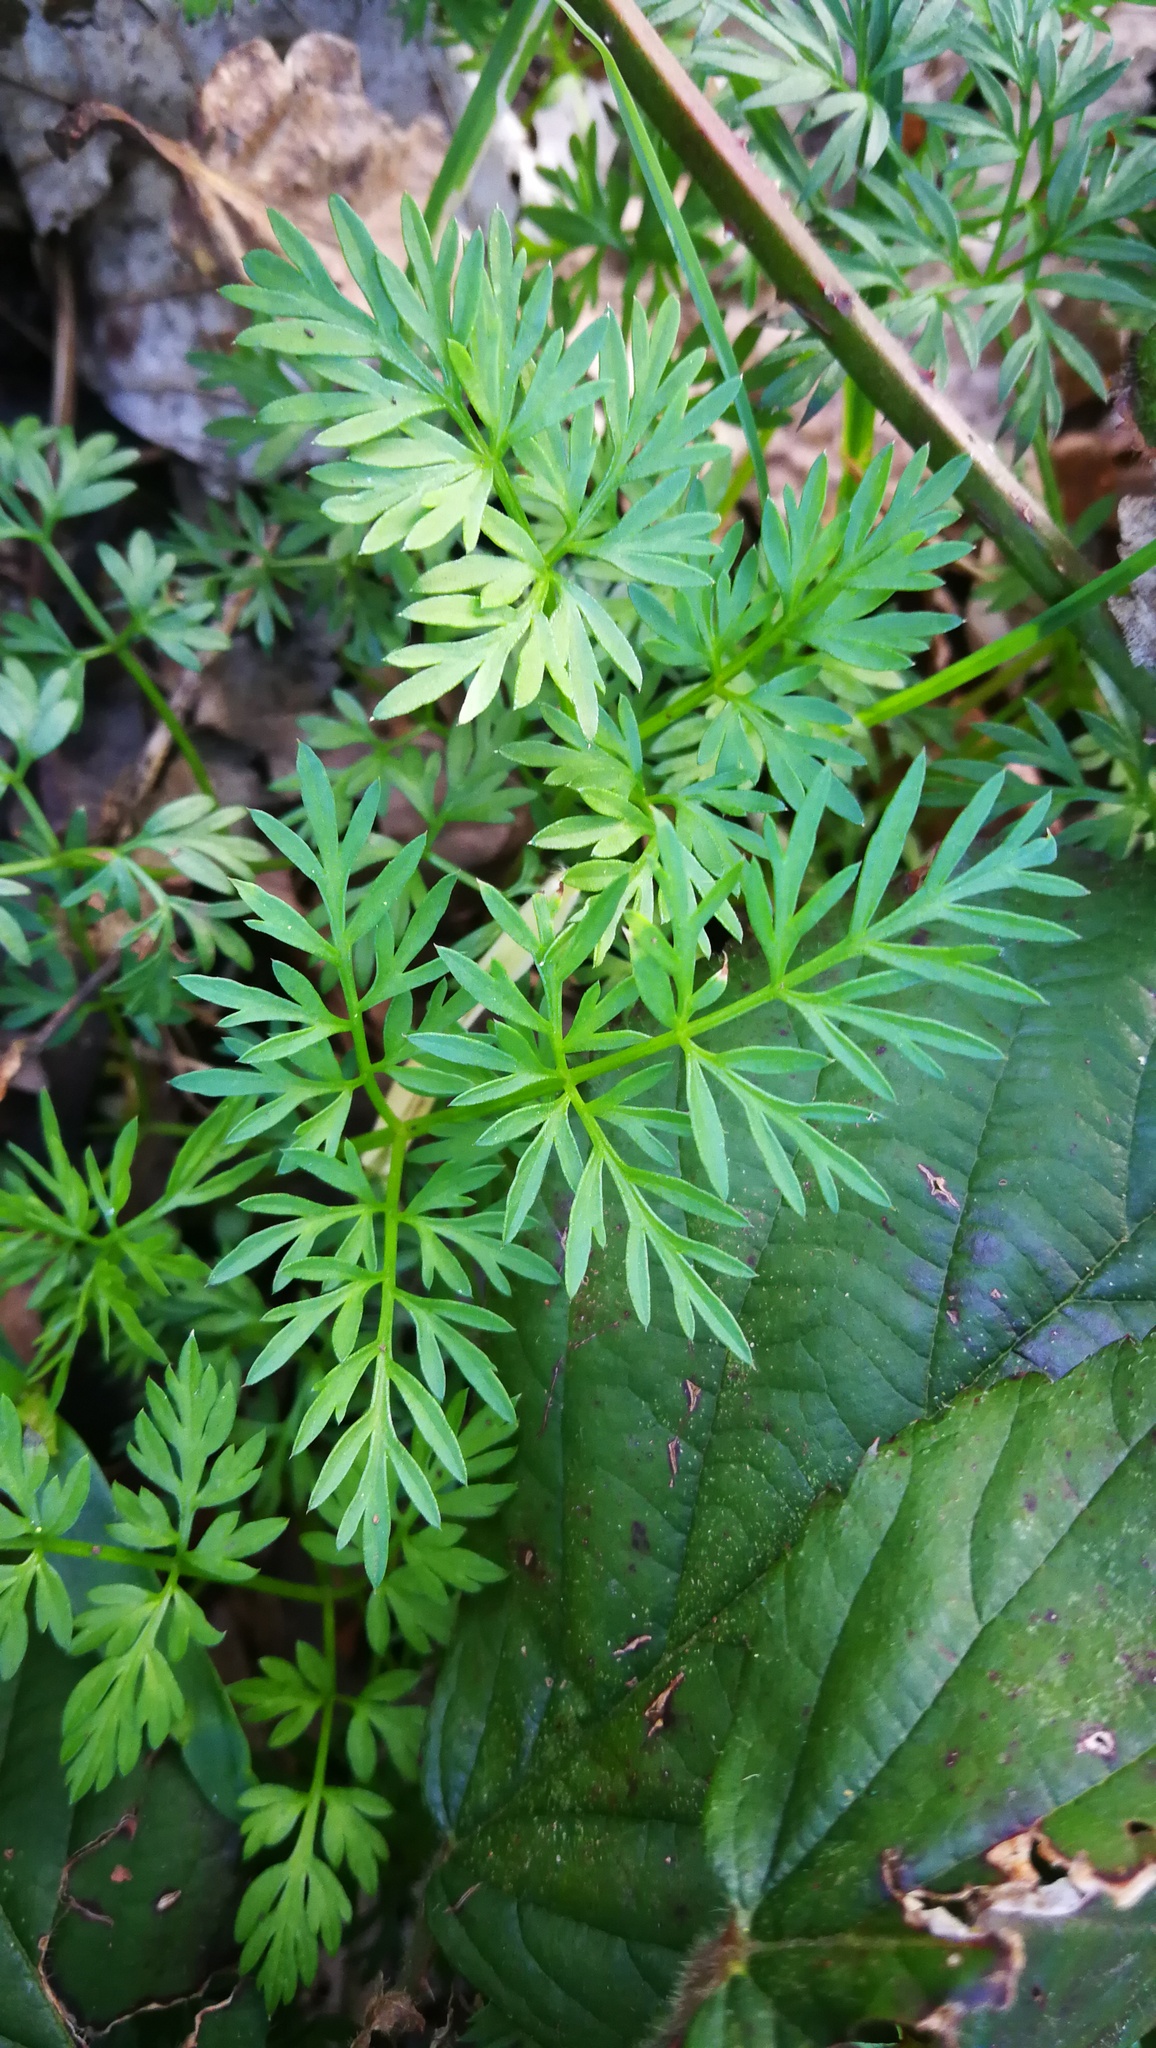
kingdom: Plantae
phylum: Tracheophyta
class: Magnoliopsida
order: Apiales
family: Apiaceae
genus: Conopodium
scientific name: Conopodium majus
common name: Pignut
